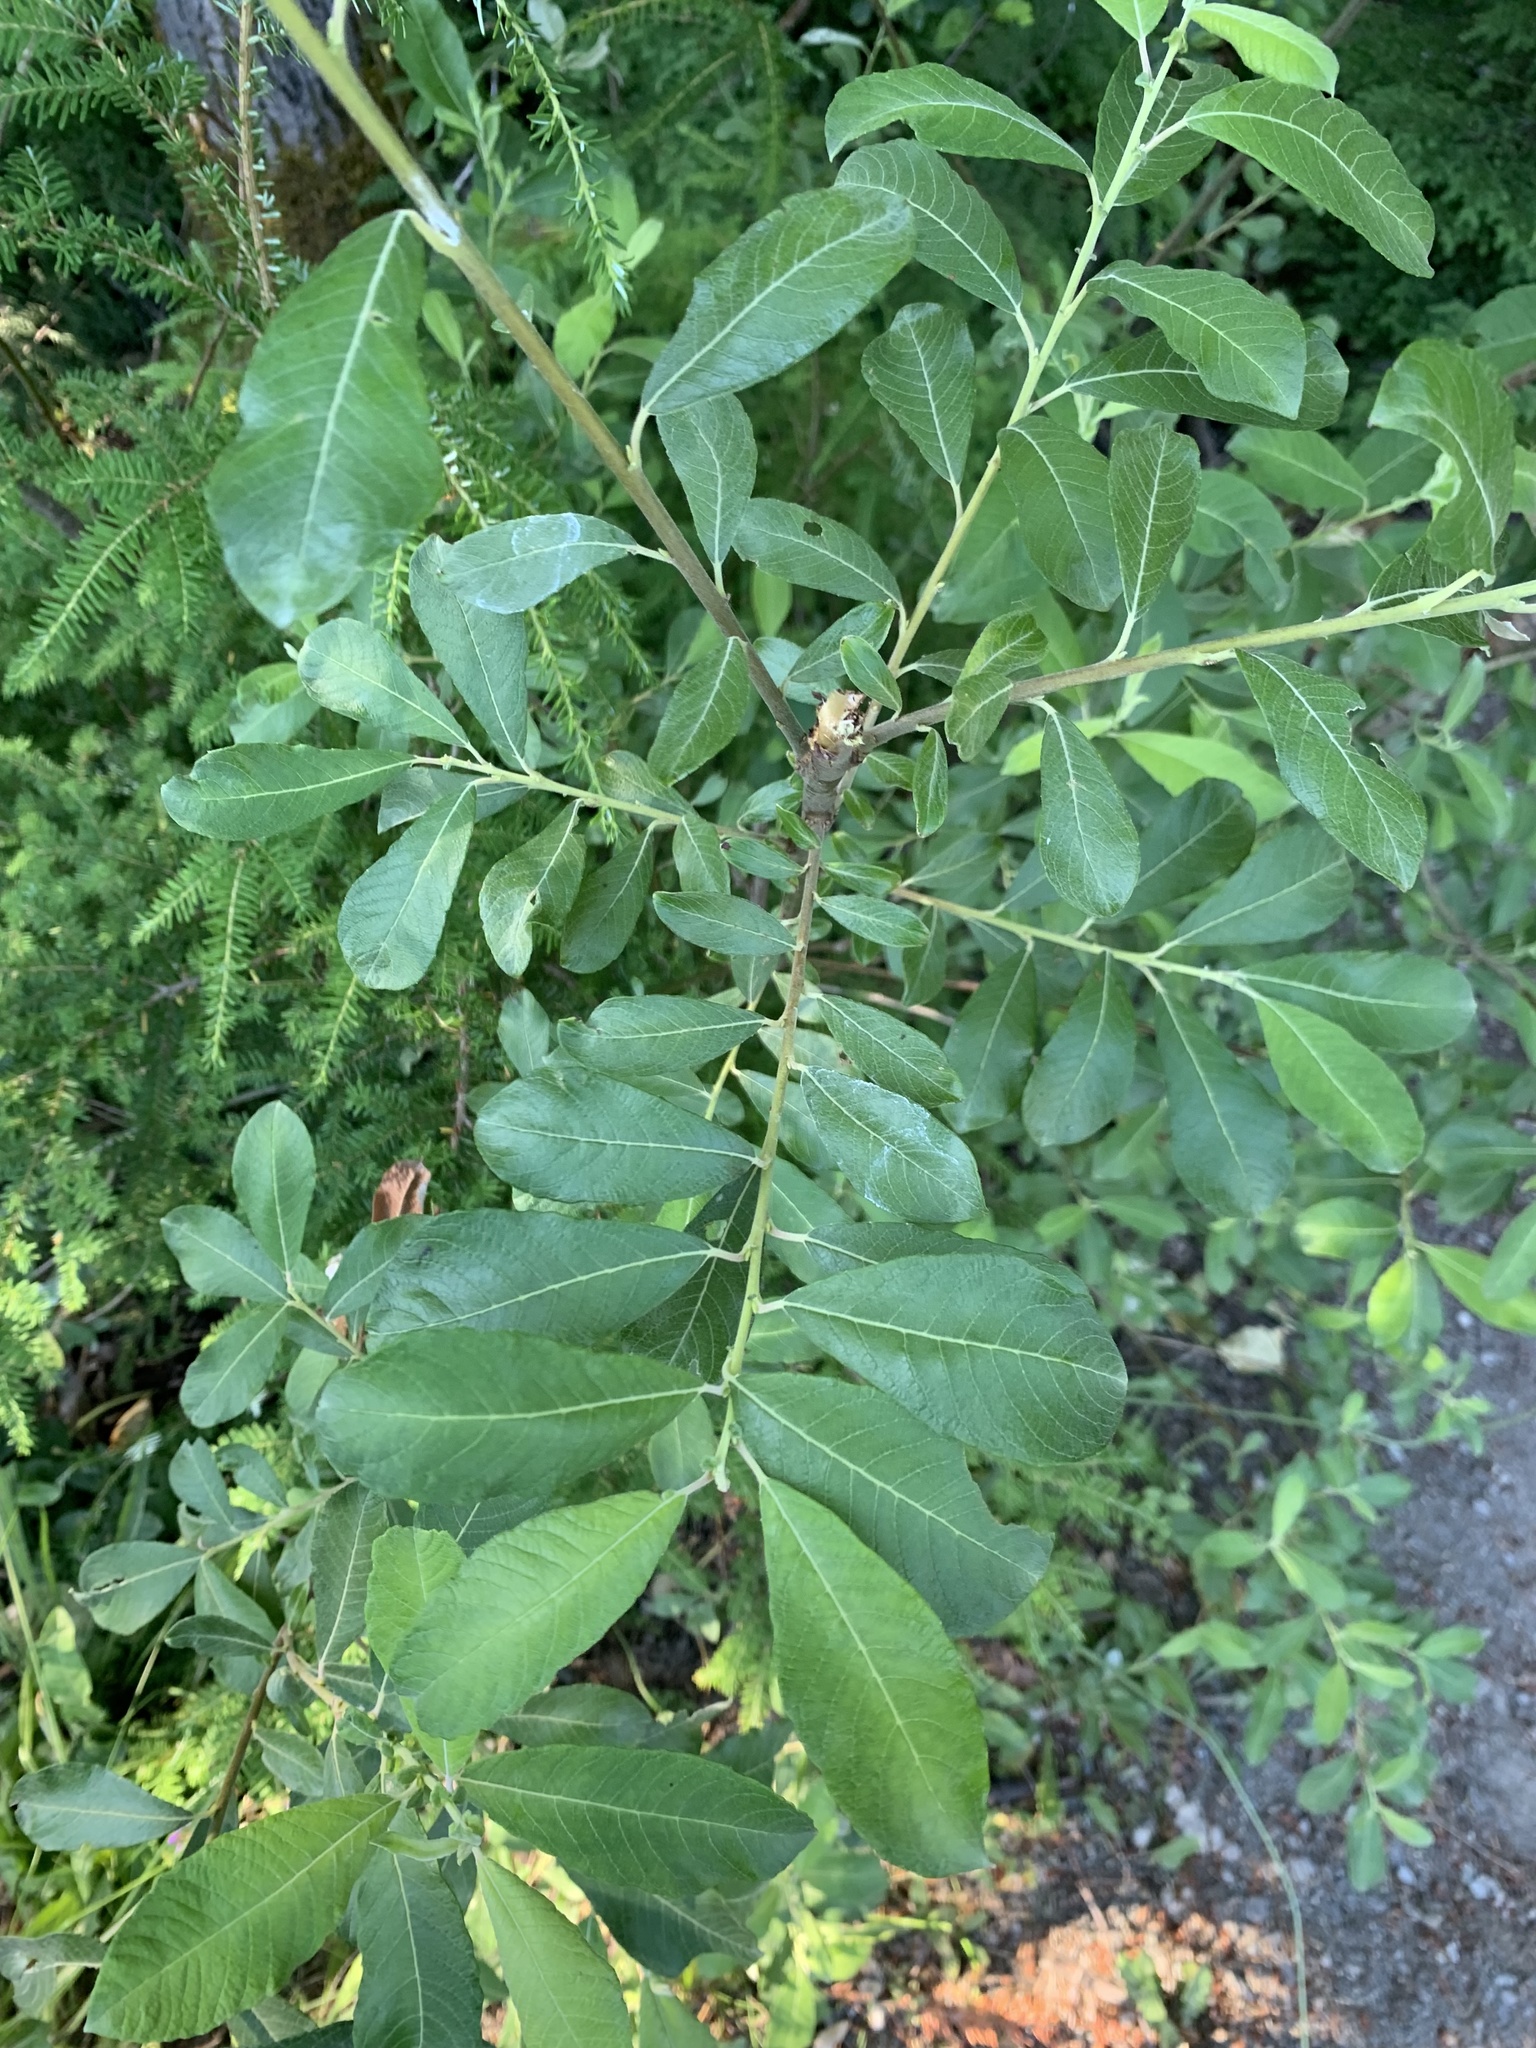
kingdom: Plantae
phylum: Tracheophyta
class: Magnoliopsida
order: Malpighiales
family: Salicaceae
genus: Salix
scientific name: Salix sitchensis
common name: Sitka willow
